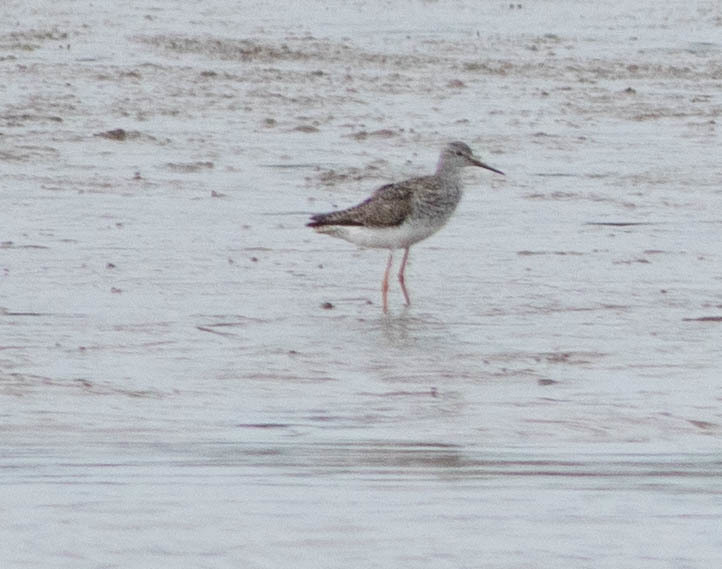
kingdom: Animalia
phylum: Chordata
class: Aves
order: Charadriiformes
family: Scolopacidae
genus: Tringa
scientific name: Tringa flavipes
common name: Lesser yellowlegs
